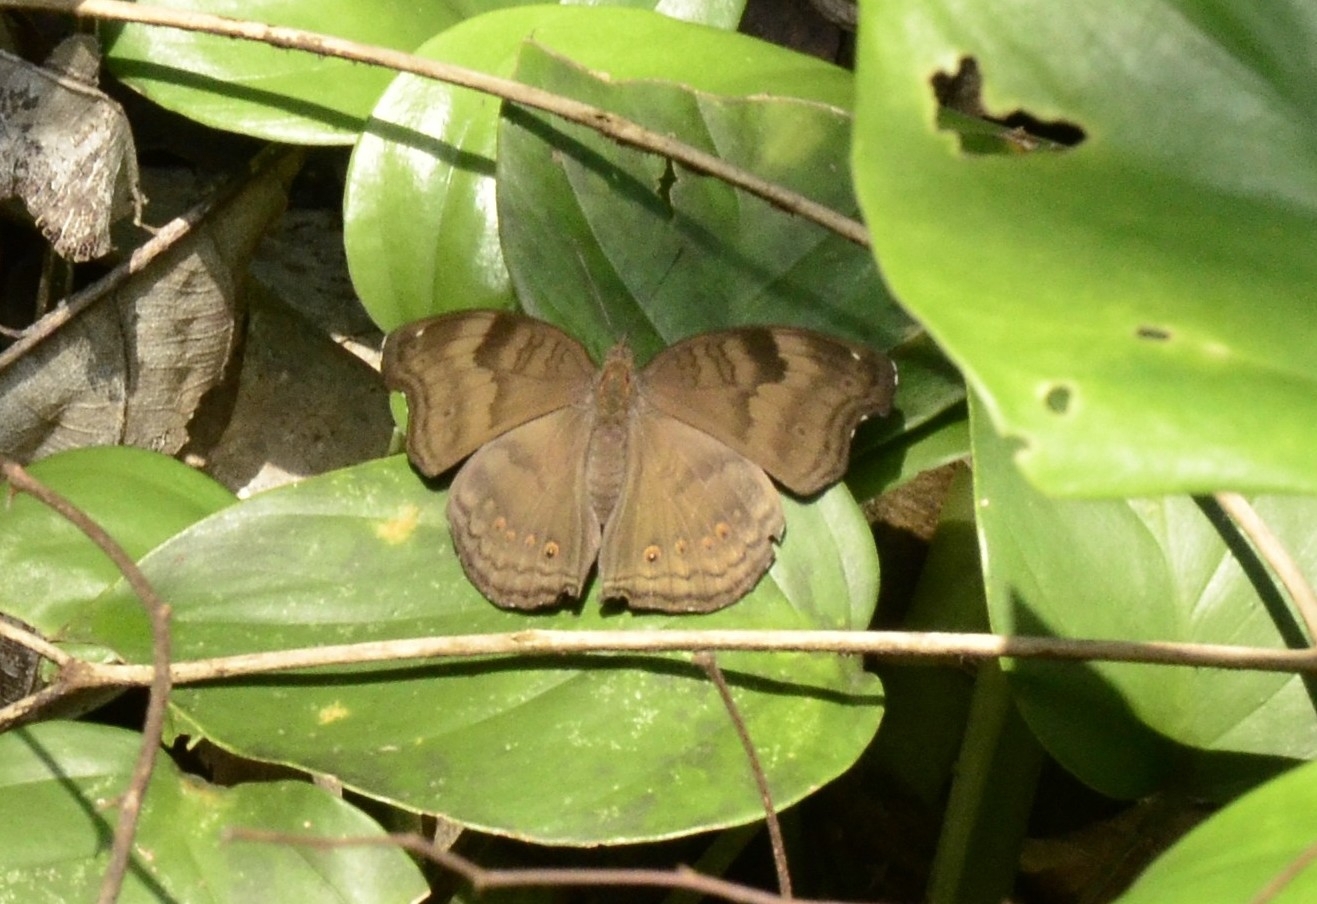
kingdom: Animalia
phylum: Arthropoda
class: Insecta
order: Lepidoptera
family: Nymphalidae
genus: Junonia
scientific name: Junonia iphita
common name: Chocolate pansy
